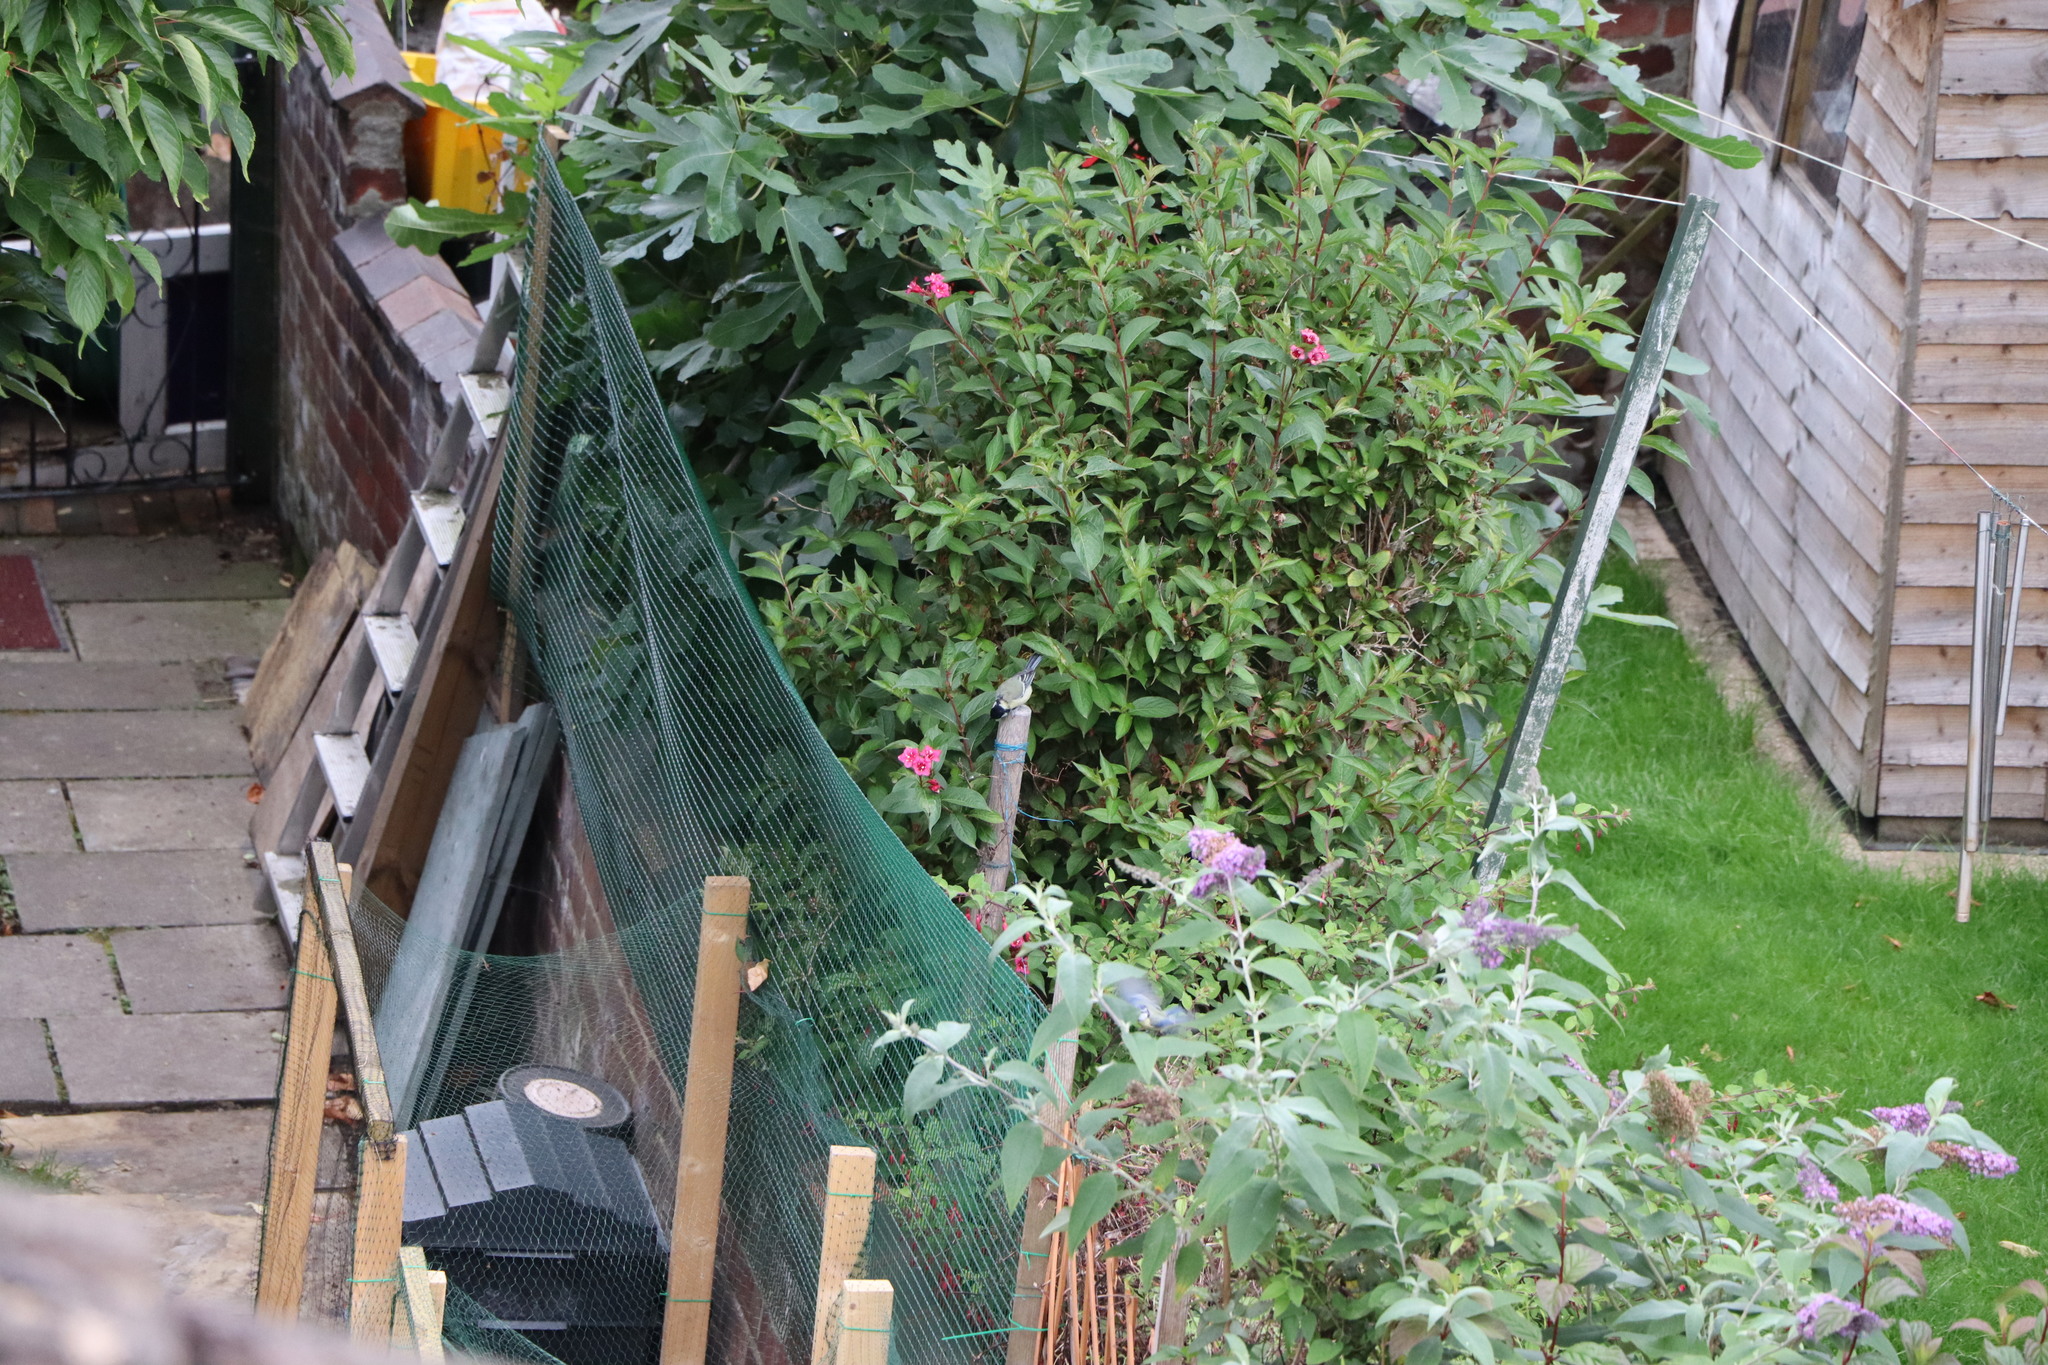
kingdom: Animalia
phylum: Chordata
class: Aves
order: Passeriformes
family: Paridae
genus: Parus
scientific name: Parus major
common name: Great tit
